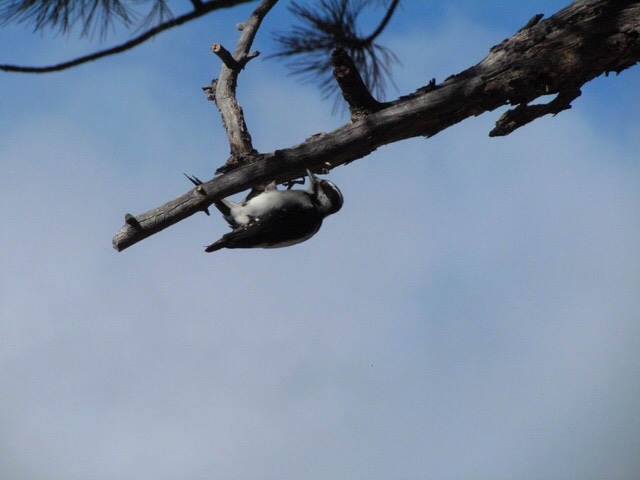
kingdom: Animalia
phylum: Chordata
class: Aves
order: Piciformes
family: Picidae
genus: Dryobates
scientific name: Dryobates pubescens
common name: Downy woodpecker
